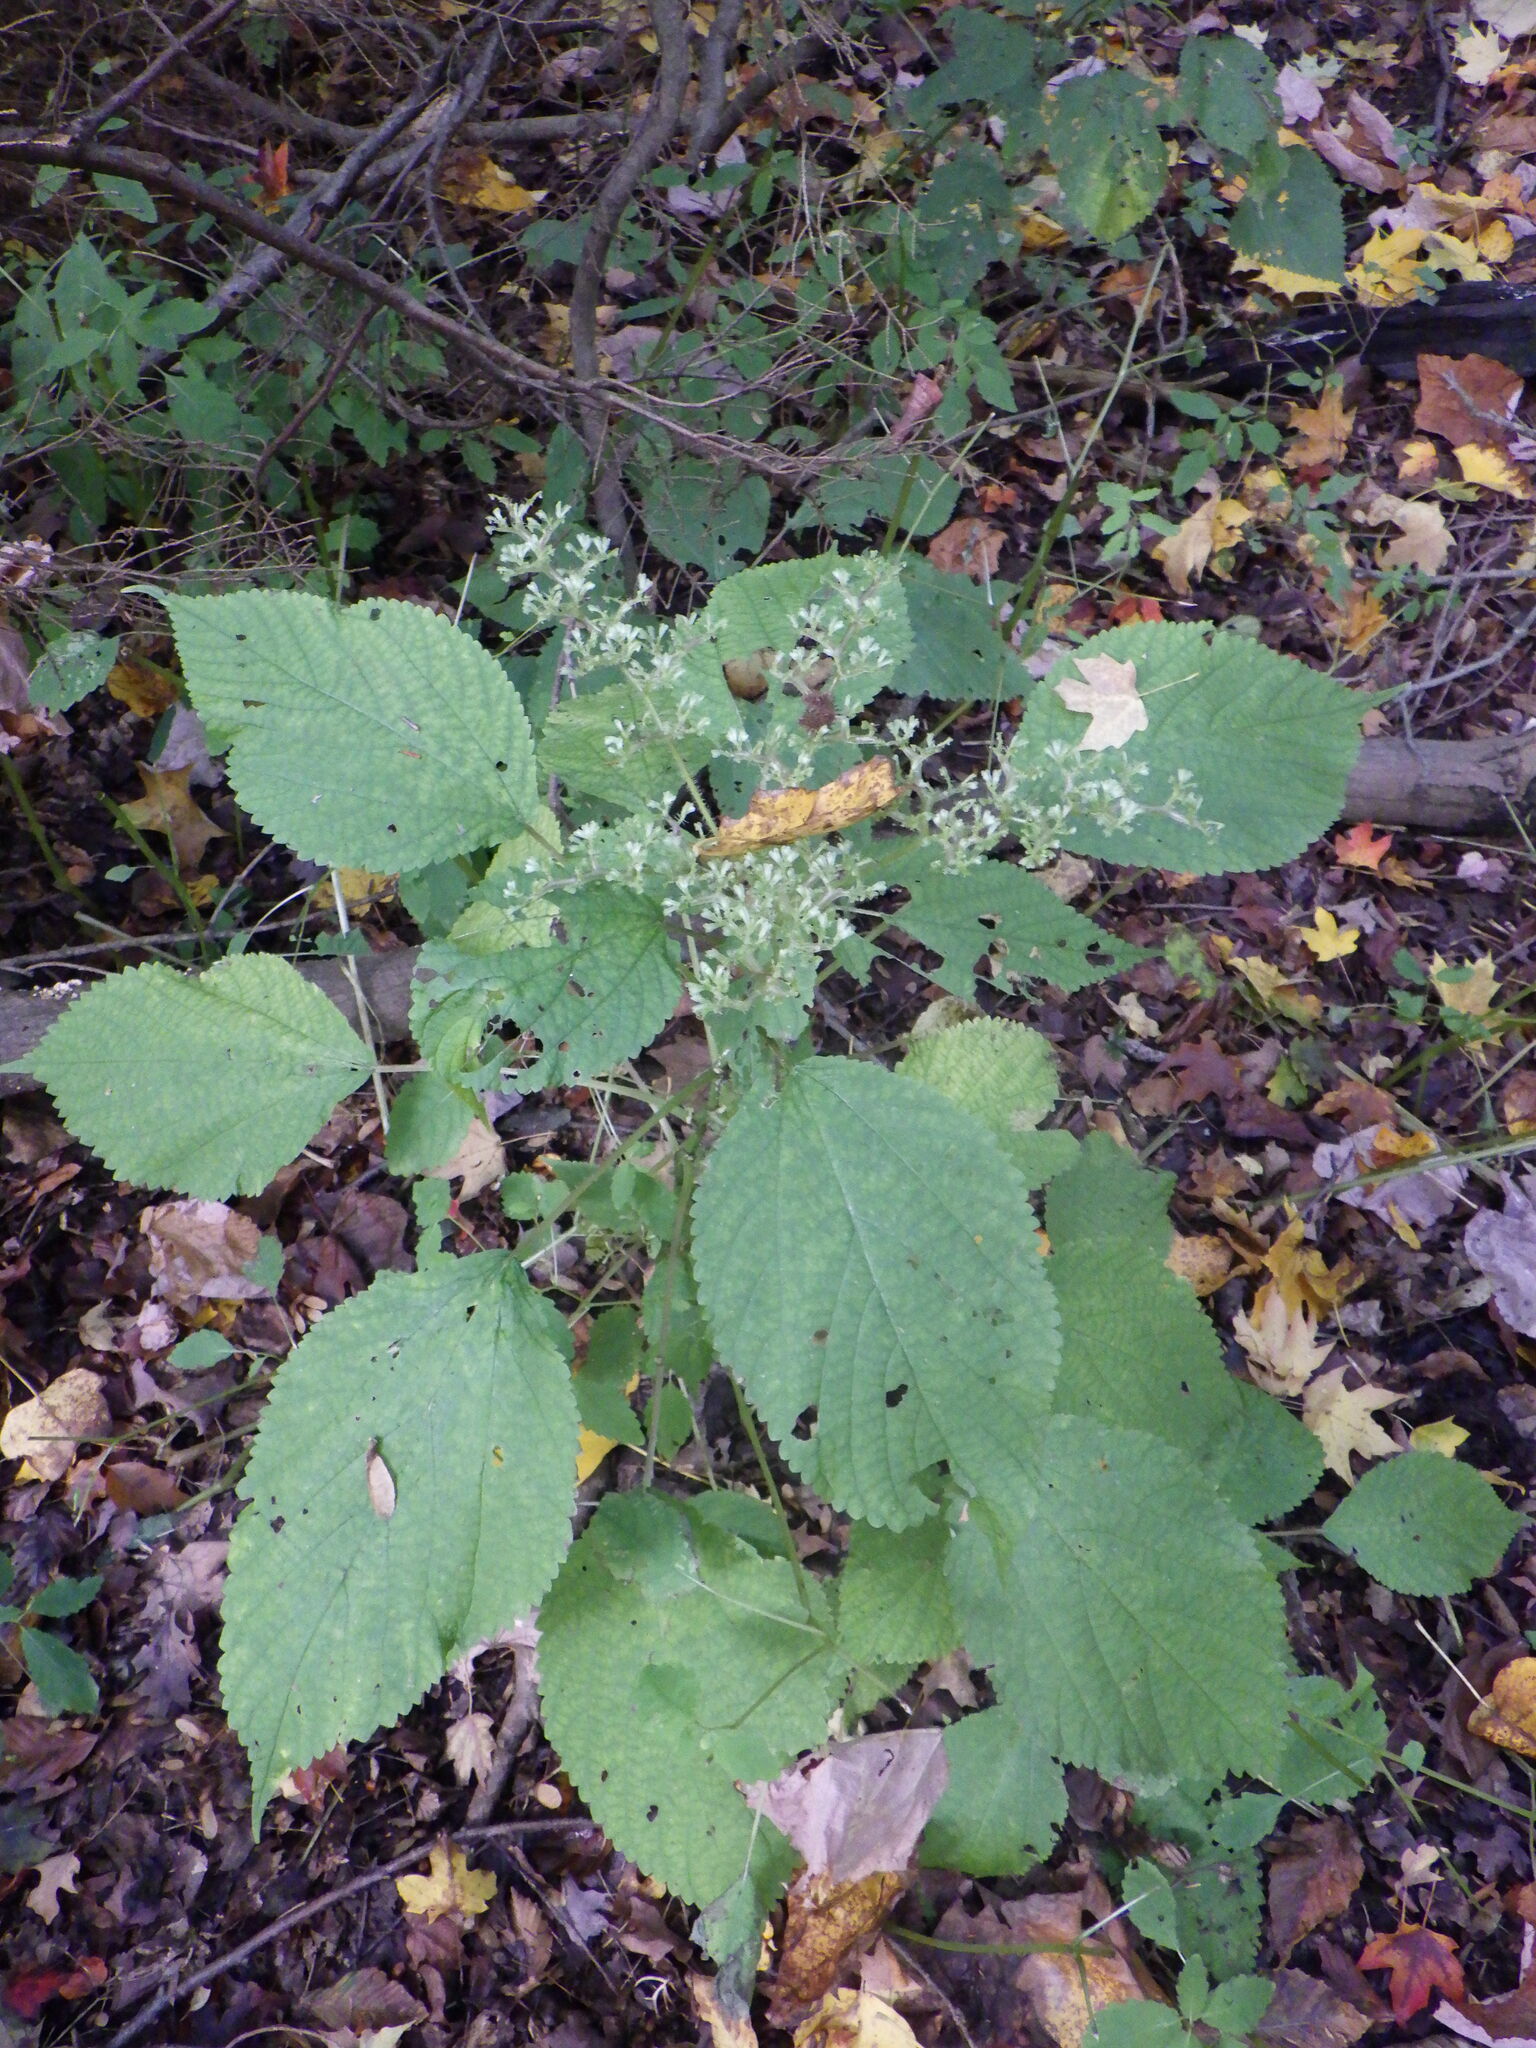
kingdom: Plantae
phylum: Tracheophyta
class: Magnoliopsida
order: Rosales
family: Urticaceae
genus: Laportea
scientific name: Laportea canadensis
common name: Canada nettle
